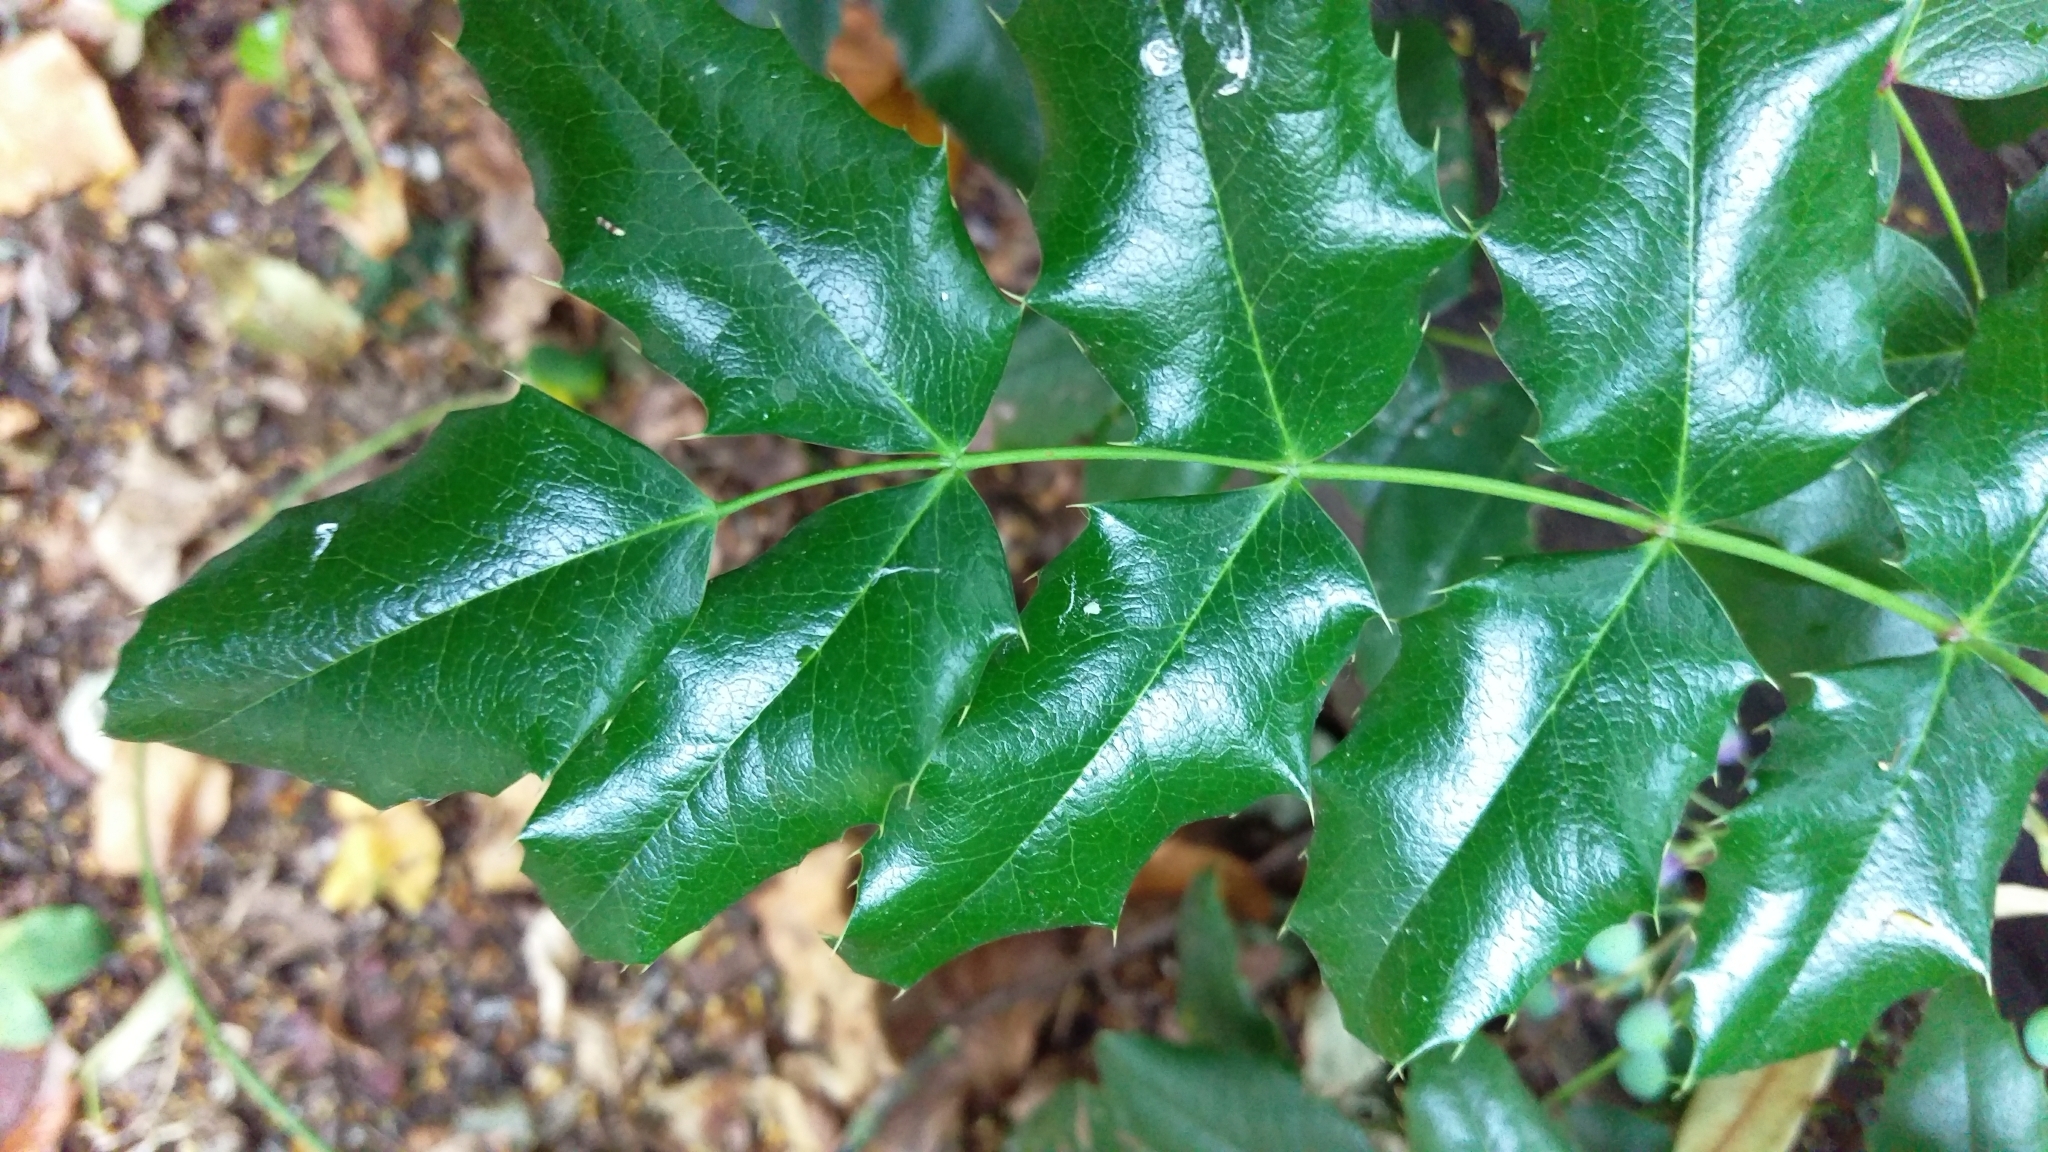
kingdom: Plantae
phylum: Tracheophyta
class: Magnoliopsida
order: Ranunculales
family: Berberidaceae
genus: Mahonia
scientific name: Mahonia aquifolium
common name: Oregon-grape
